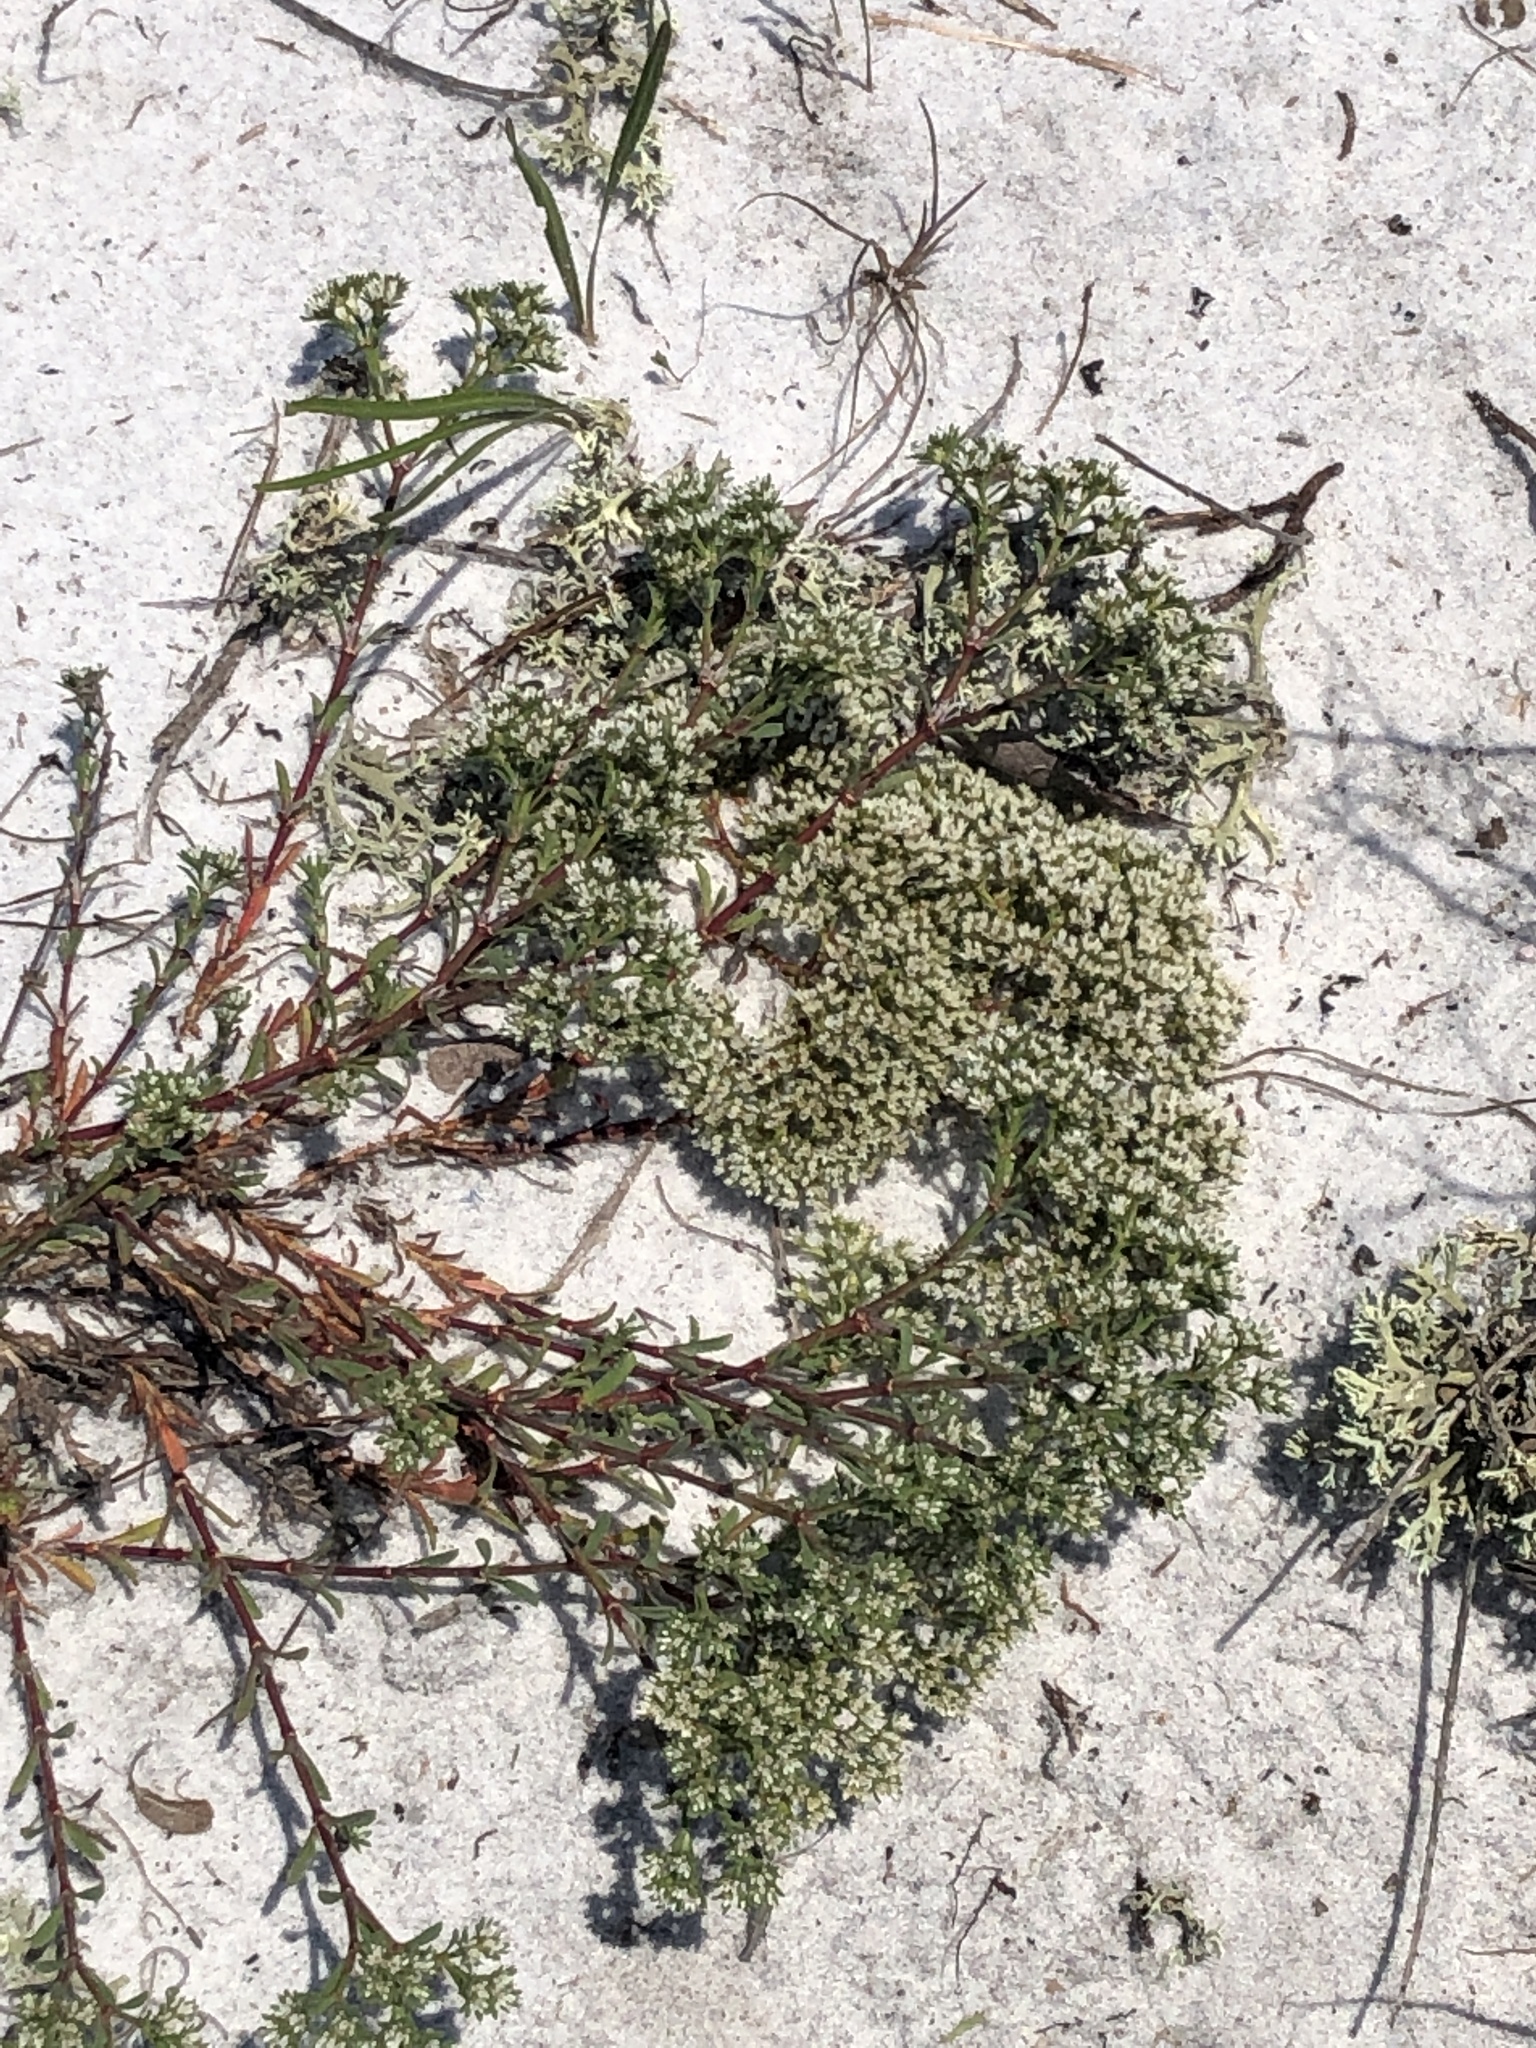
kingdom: Plantae
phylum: Tracheophyta
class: Magnoliopsida
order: Caryophyllales
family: Caryophyllaceae
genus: Paronychia
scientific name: Paronychia erecta
